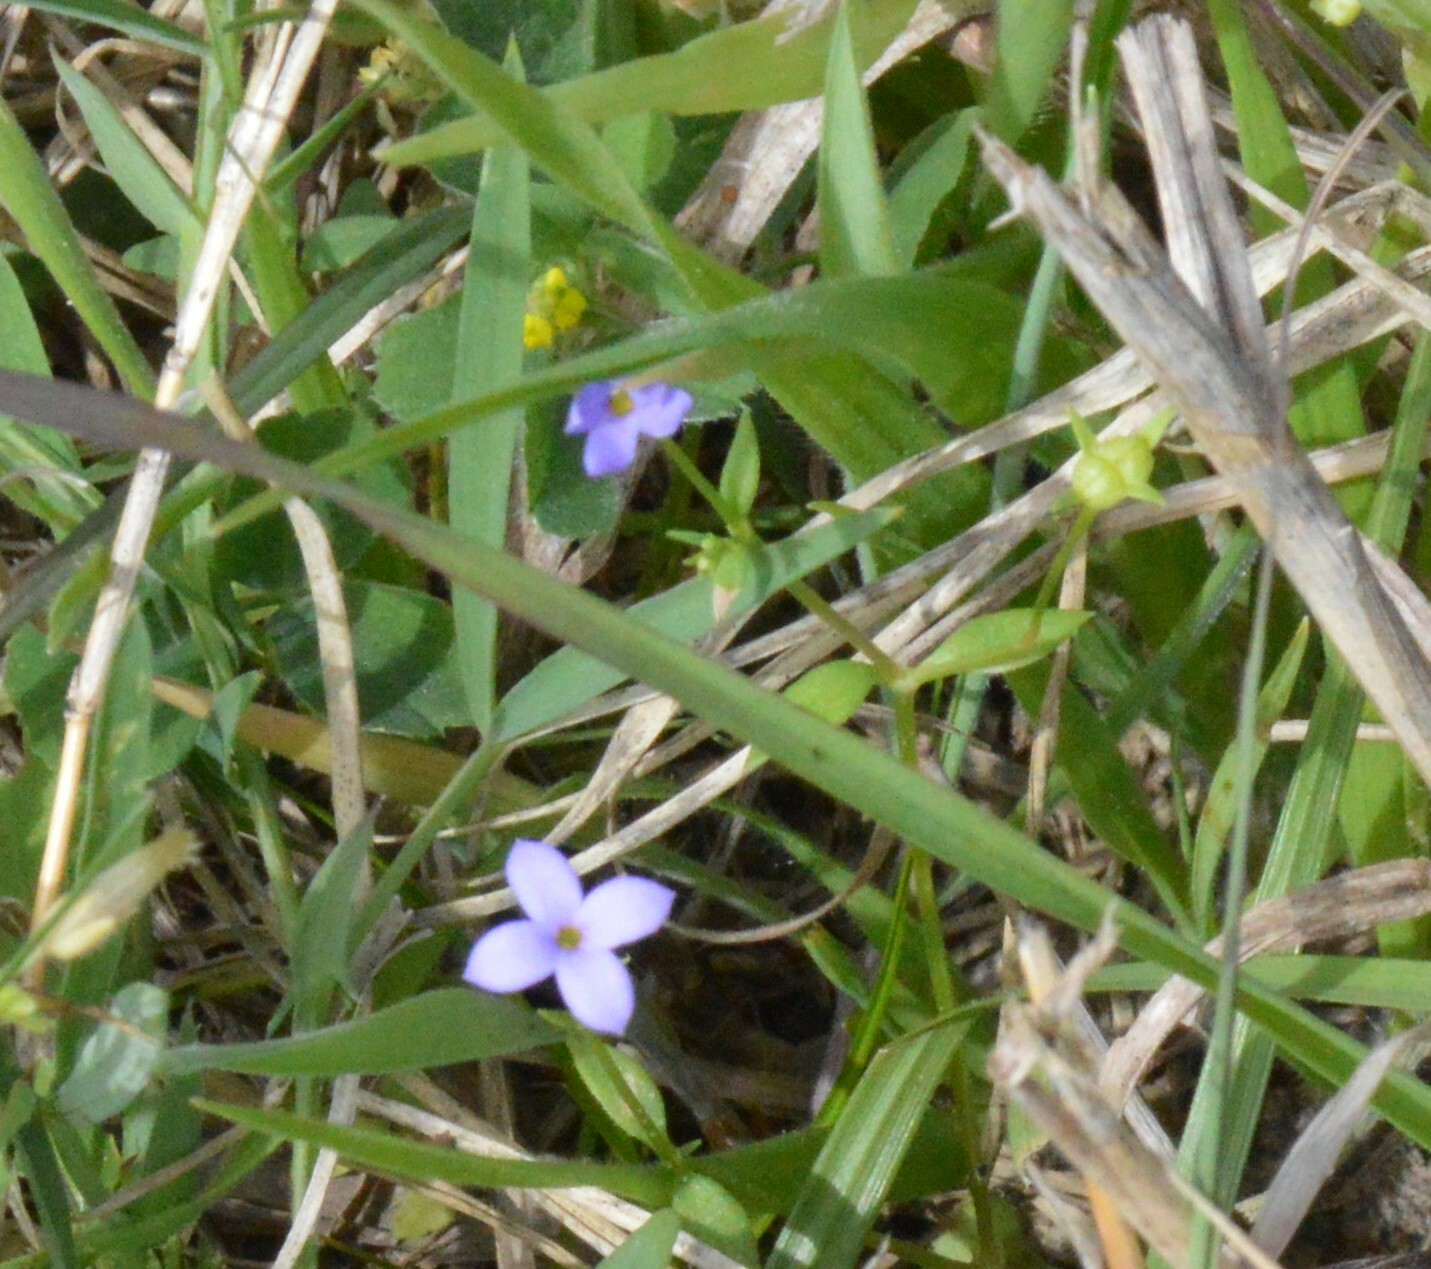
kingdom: Plantae
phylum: Tracheophyta
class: Magnoliopsida
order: Gentianales
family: Rubiaceae
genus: Houstonia
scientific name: Houstonia pusilla
